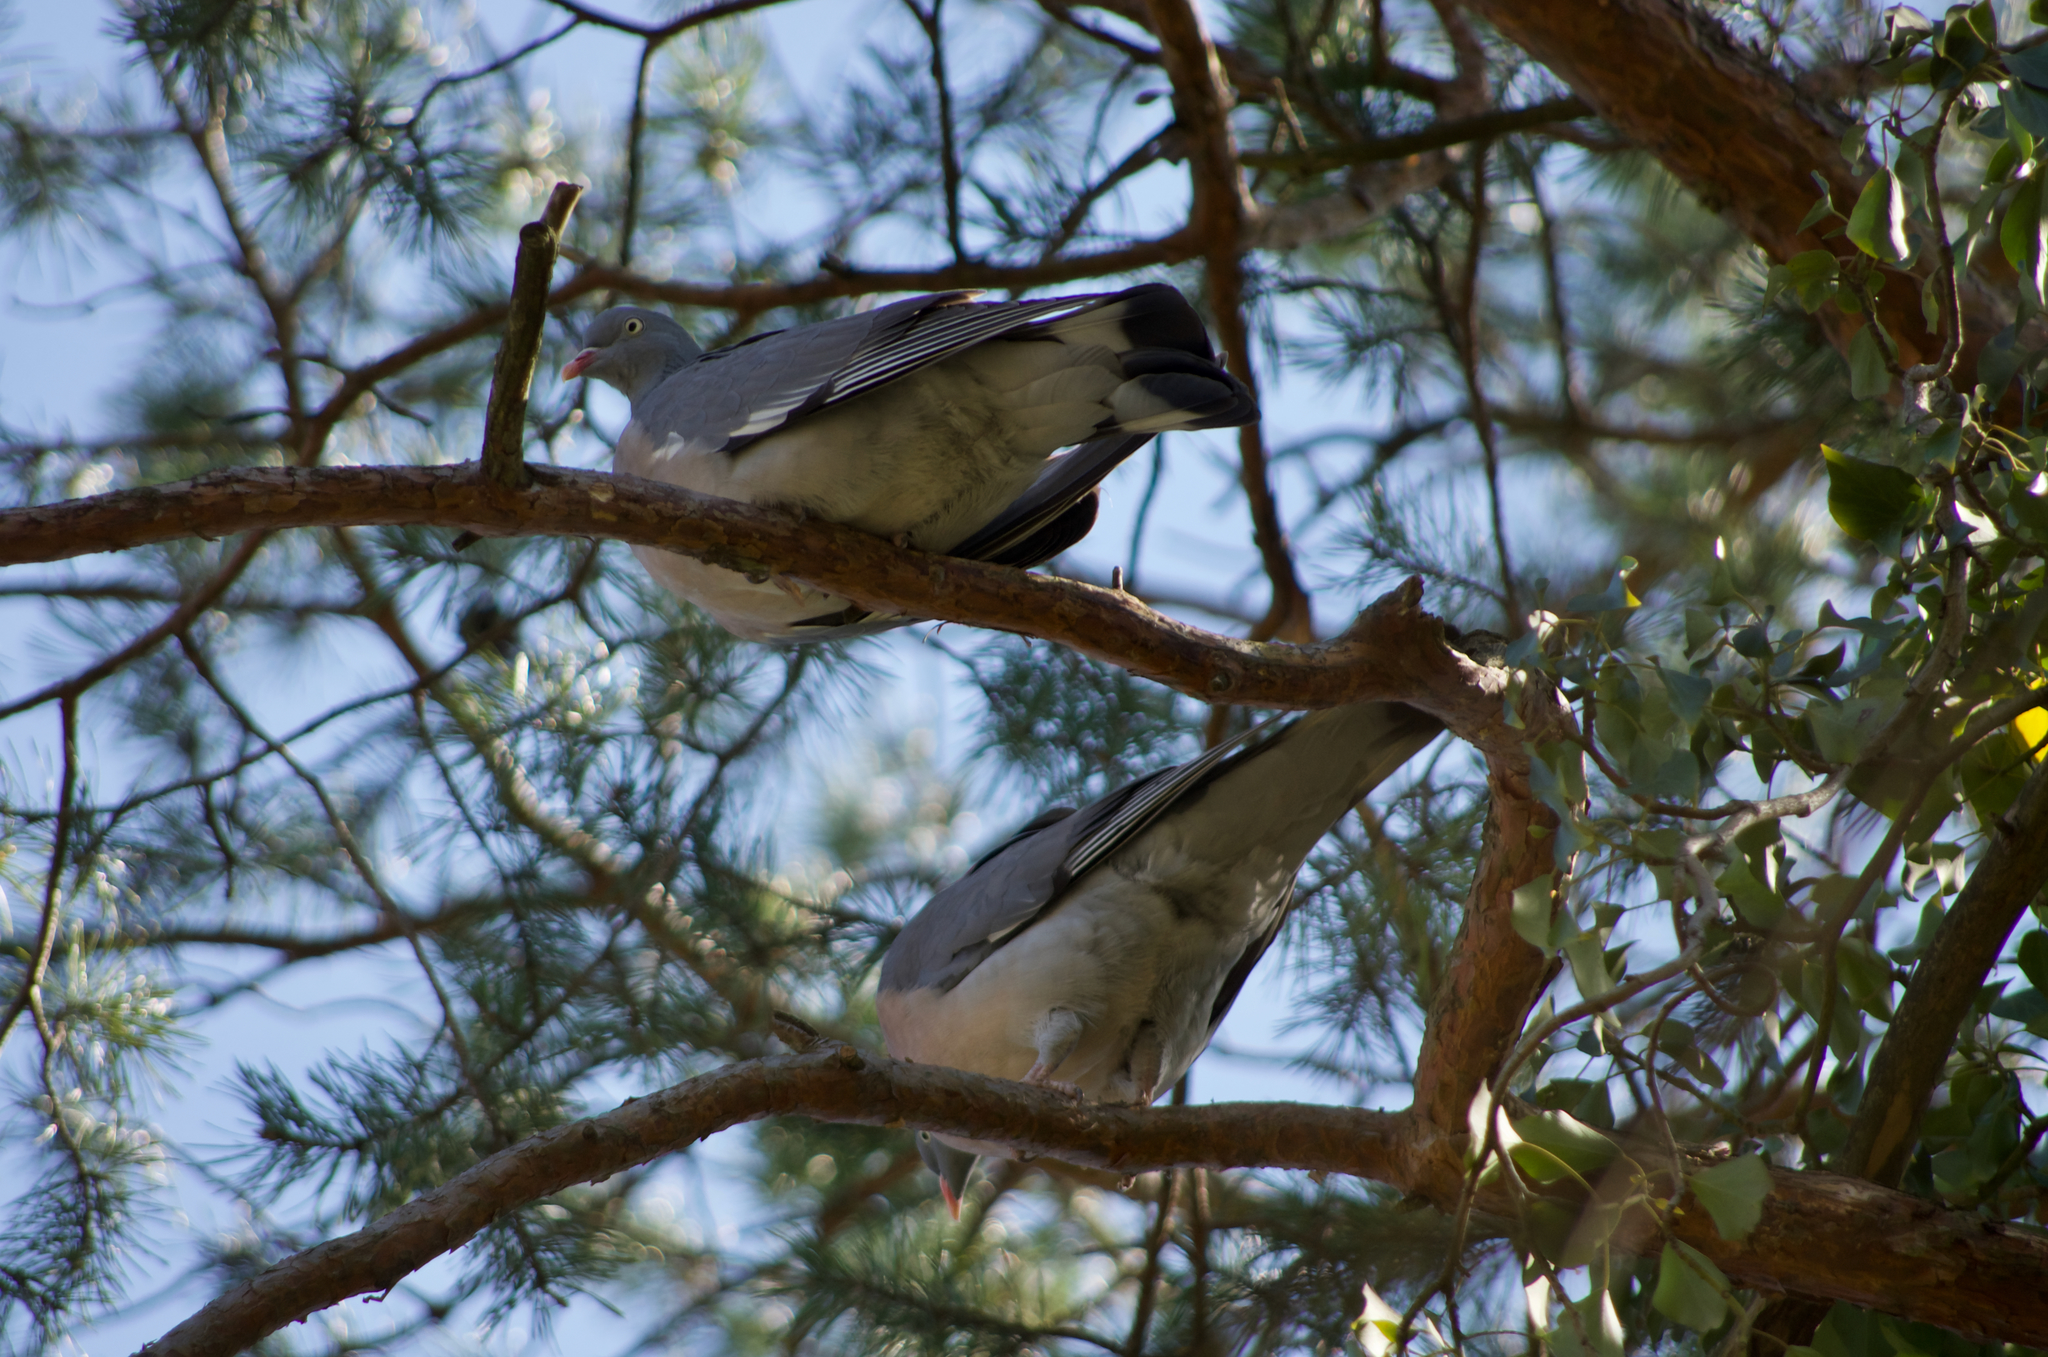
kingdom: Animalia
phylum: Chordata
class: Aves
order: Columbiformes
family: Columbidae
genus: Columba
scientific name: Columba palumbus
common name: Common wood pigeon
